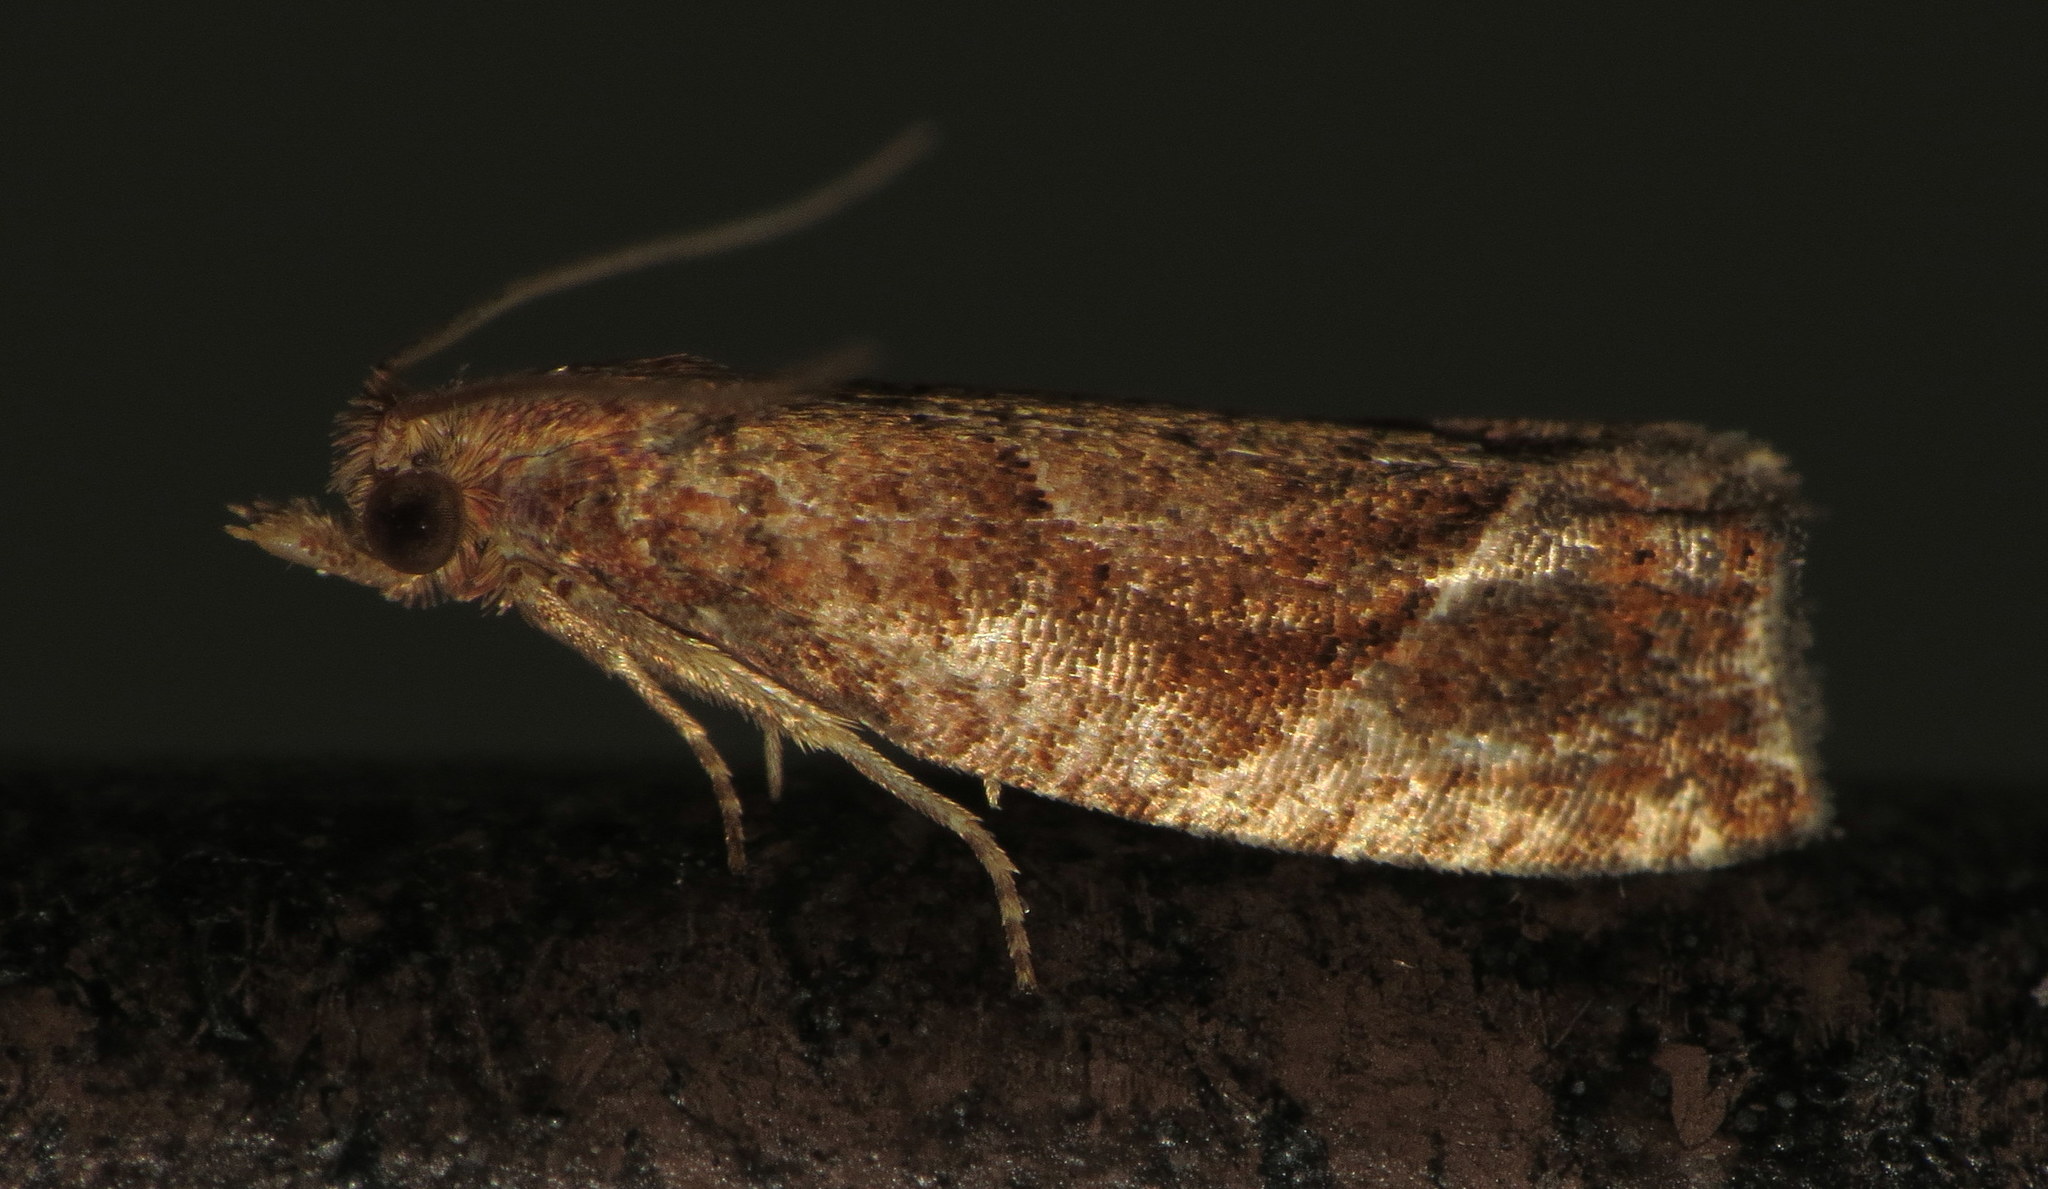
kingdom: Animalia
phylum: Arthropoda
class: Insecta
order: Lepidoptera
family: Tortricidae
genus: Pelochrista
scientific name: Pelochrista derelicta
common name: Derelict pelochrista moth
